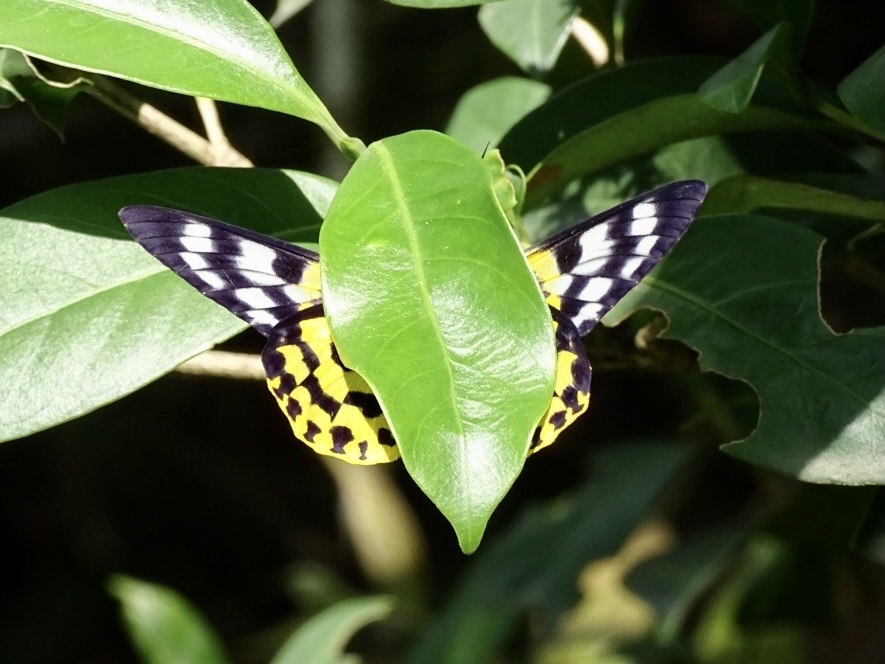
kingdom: Animalia
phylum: Arthropoda
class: Insecta
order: Lepidoptera
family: Geometridae
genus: Dysphania
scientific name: Dysphania militaris
